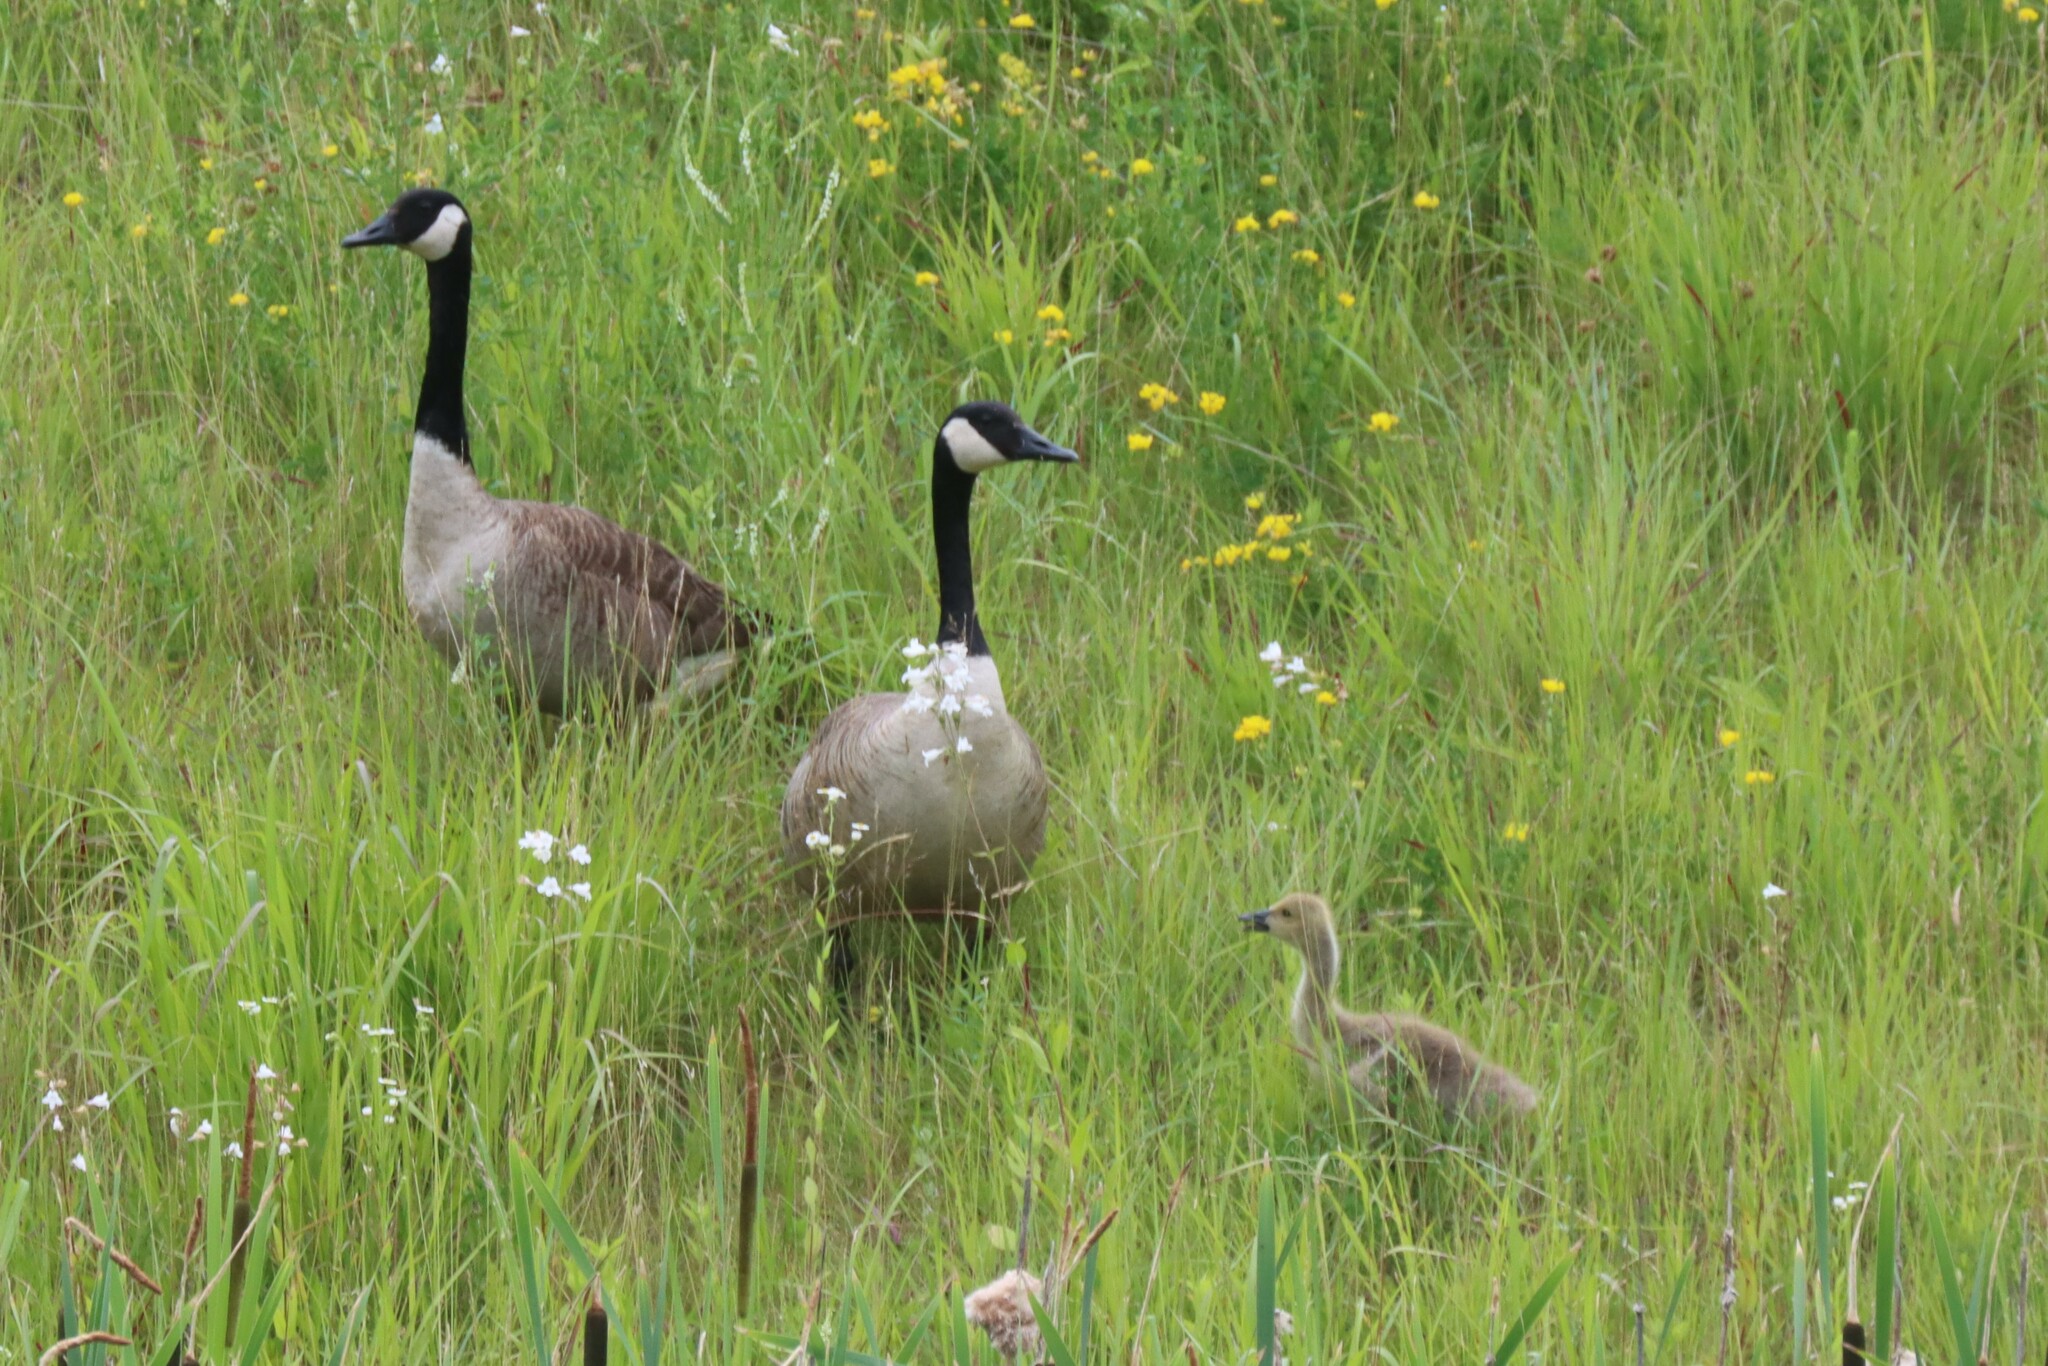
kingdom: Animalia
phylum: Chordata
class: Aves
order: Anseriformes
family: Anatidae
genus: Branta
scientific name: Branta canadensis
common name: Canada goose
